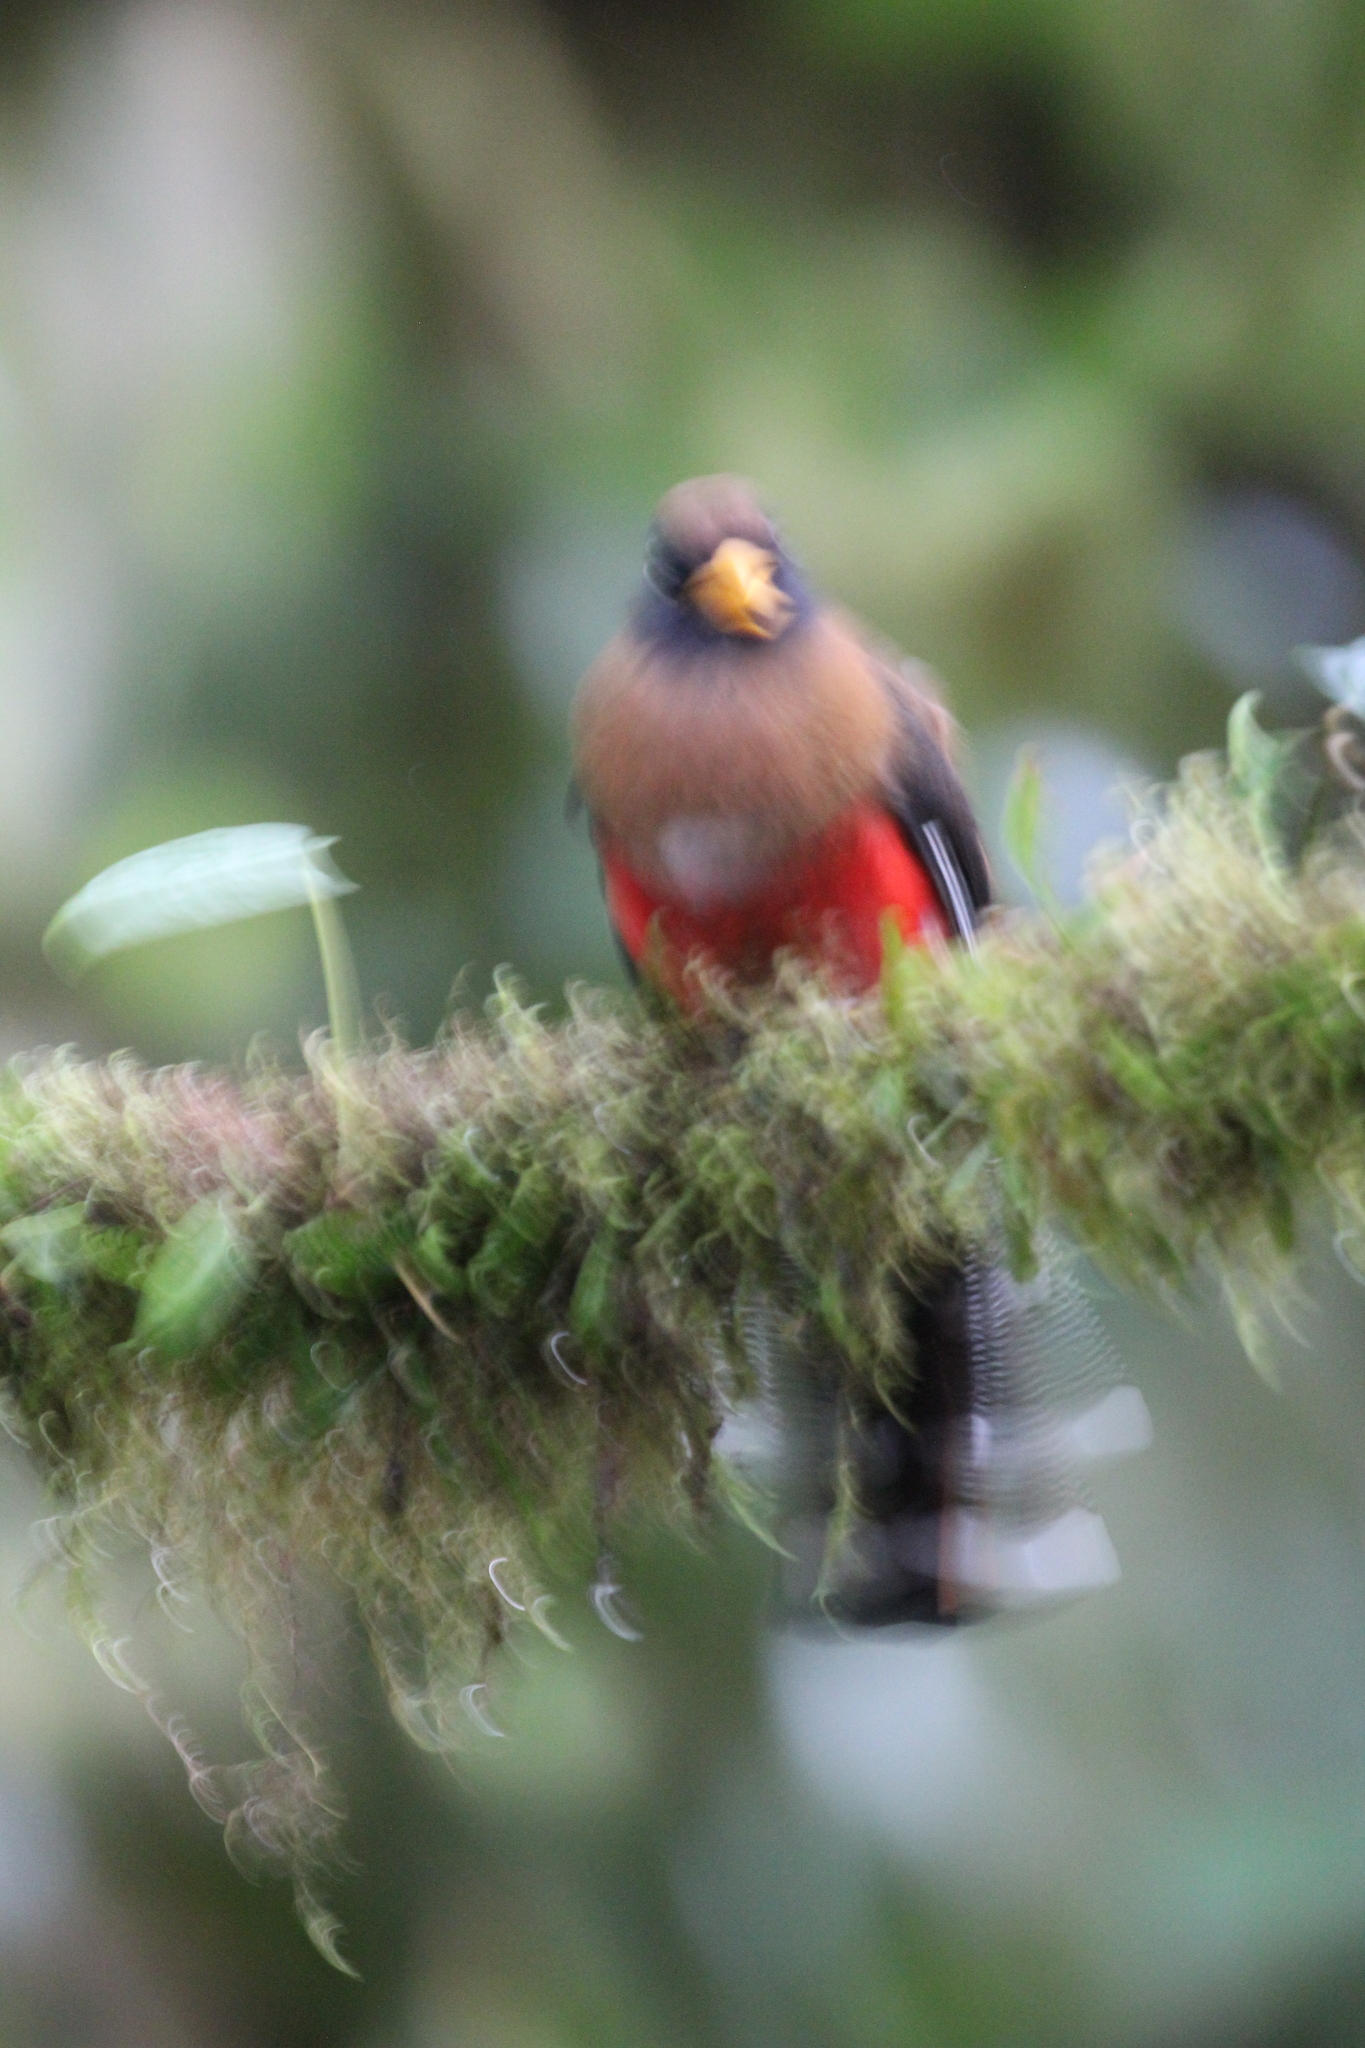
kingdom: Animalia
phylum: Chordata
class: Aves
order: Trogoniformes
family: Trogonidae
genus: Trogon
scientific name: Trogon personatus
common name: Masked trogon
